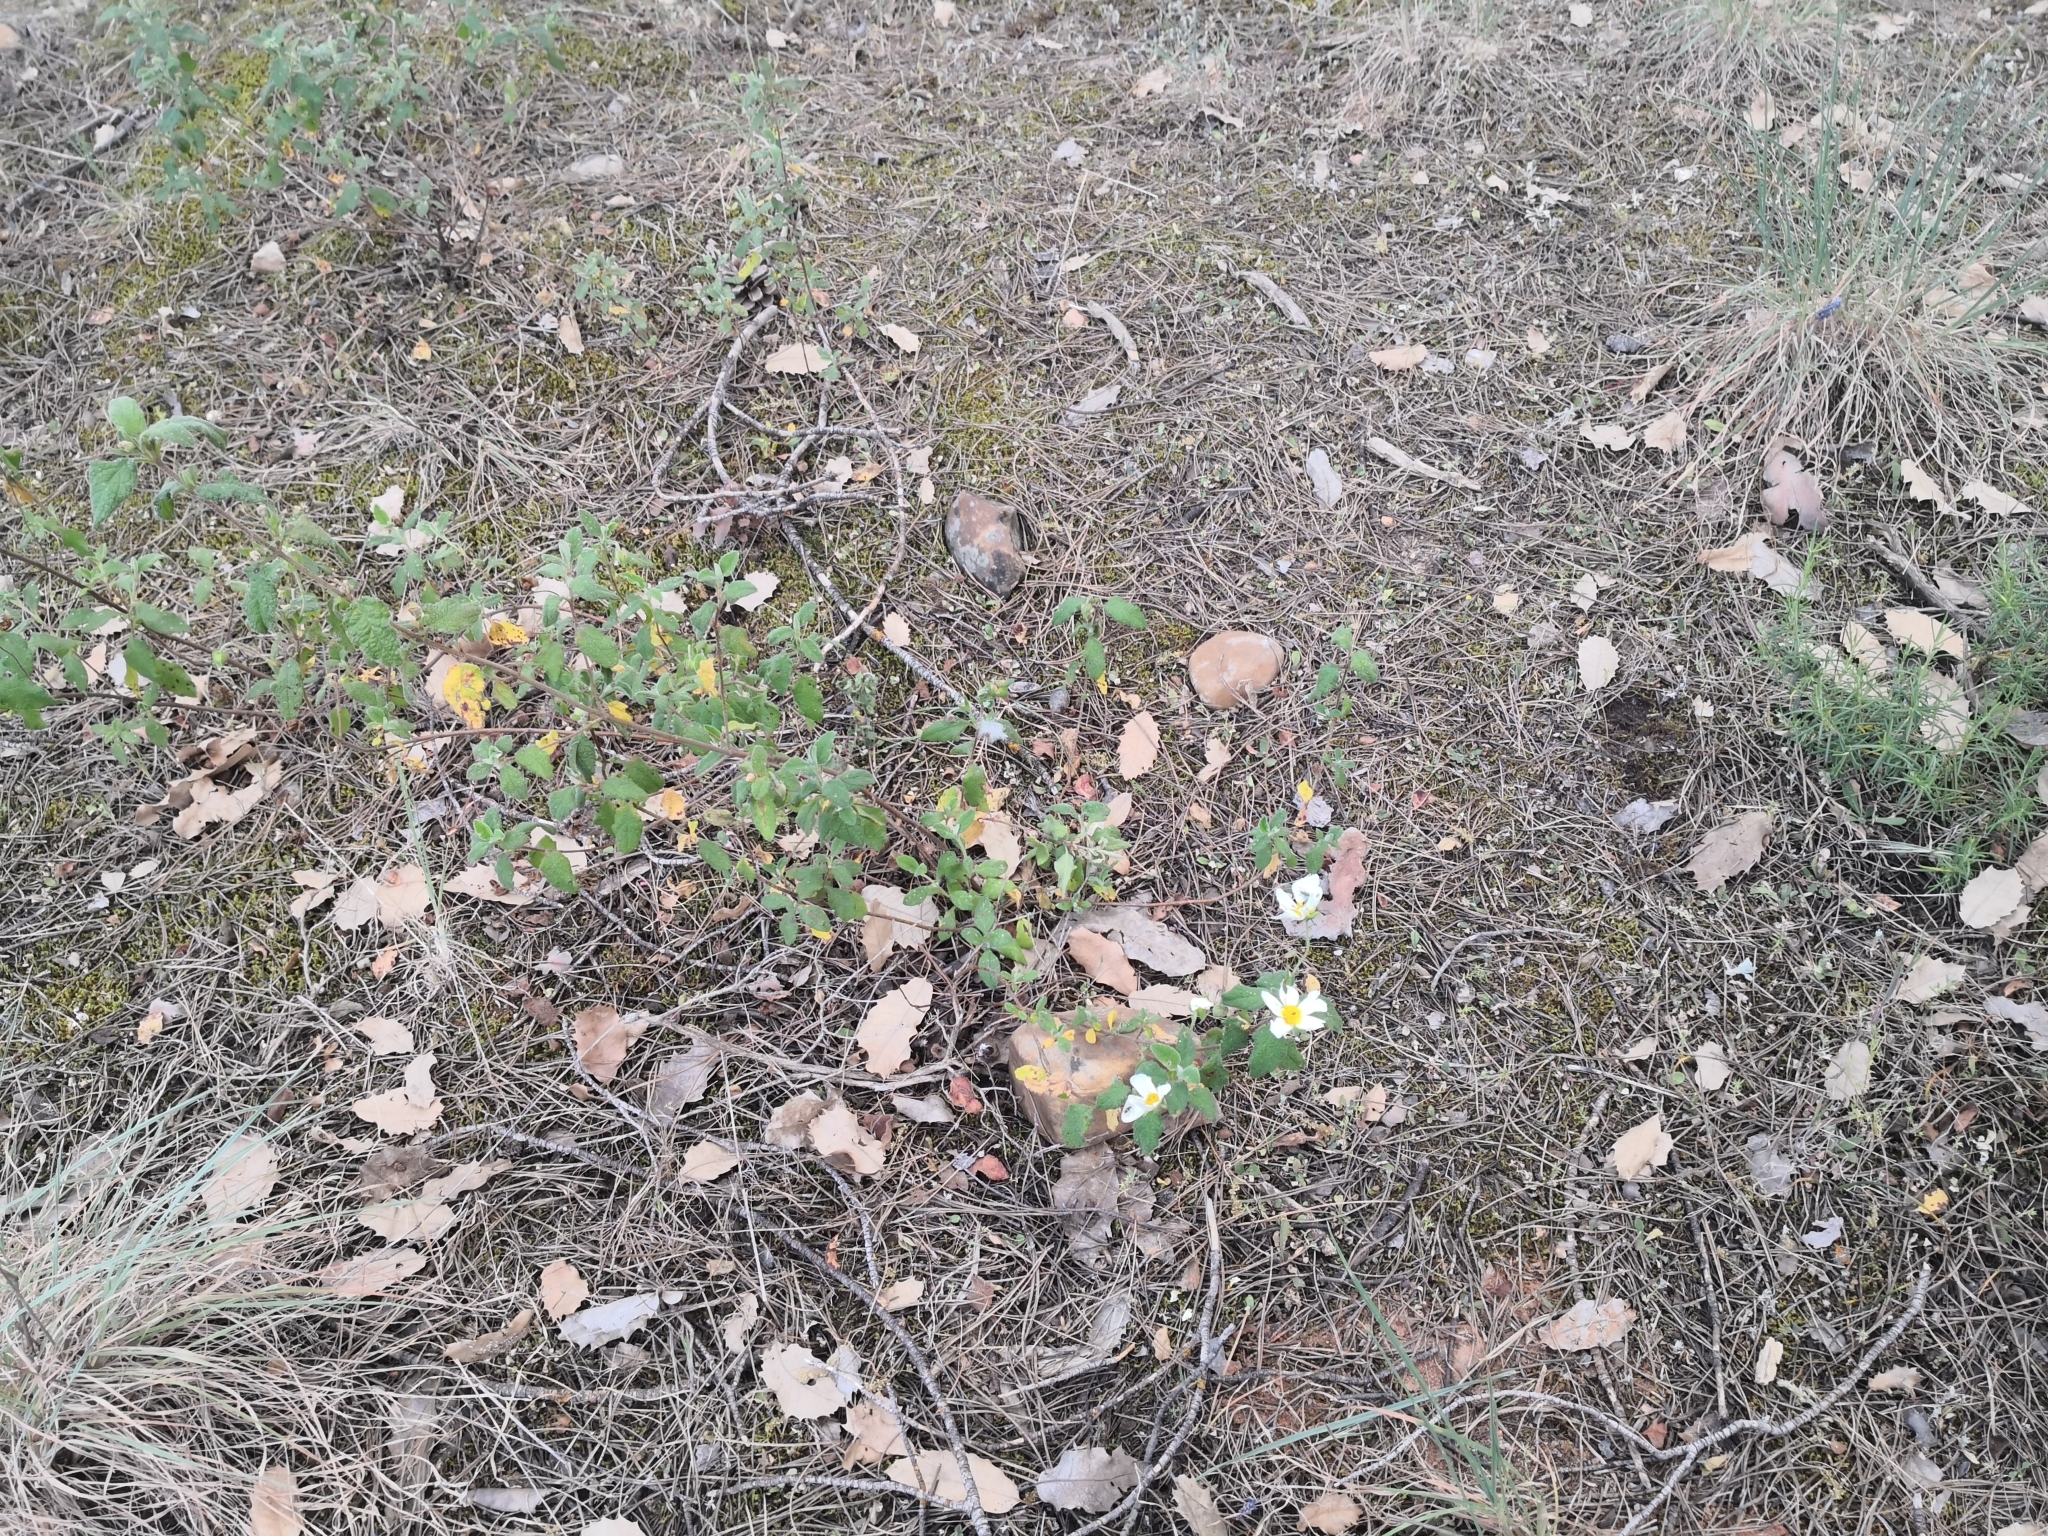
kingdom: Plantae
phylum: Tracheophyta
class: Magnoliopsida
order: Malvales
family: Cistaceae
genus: Cistus
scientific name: Cistus salviifolius
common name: Salvia cistus
